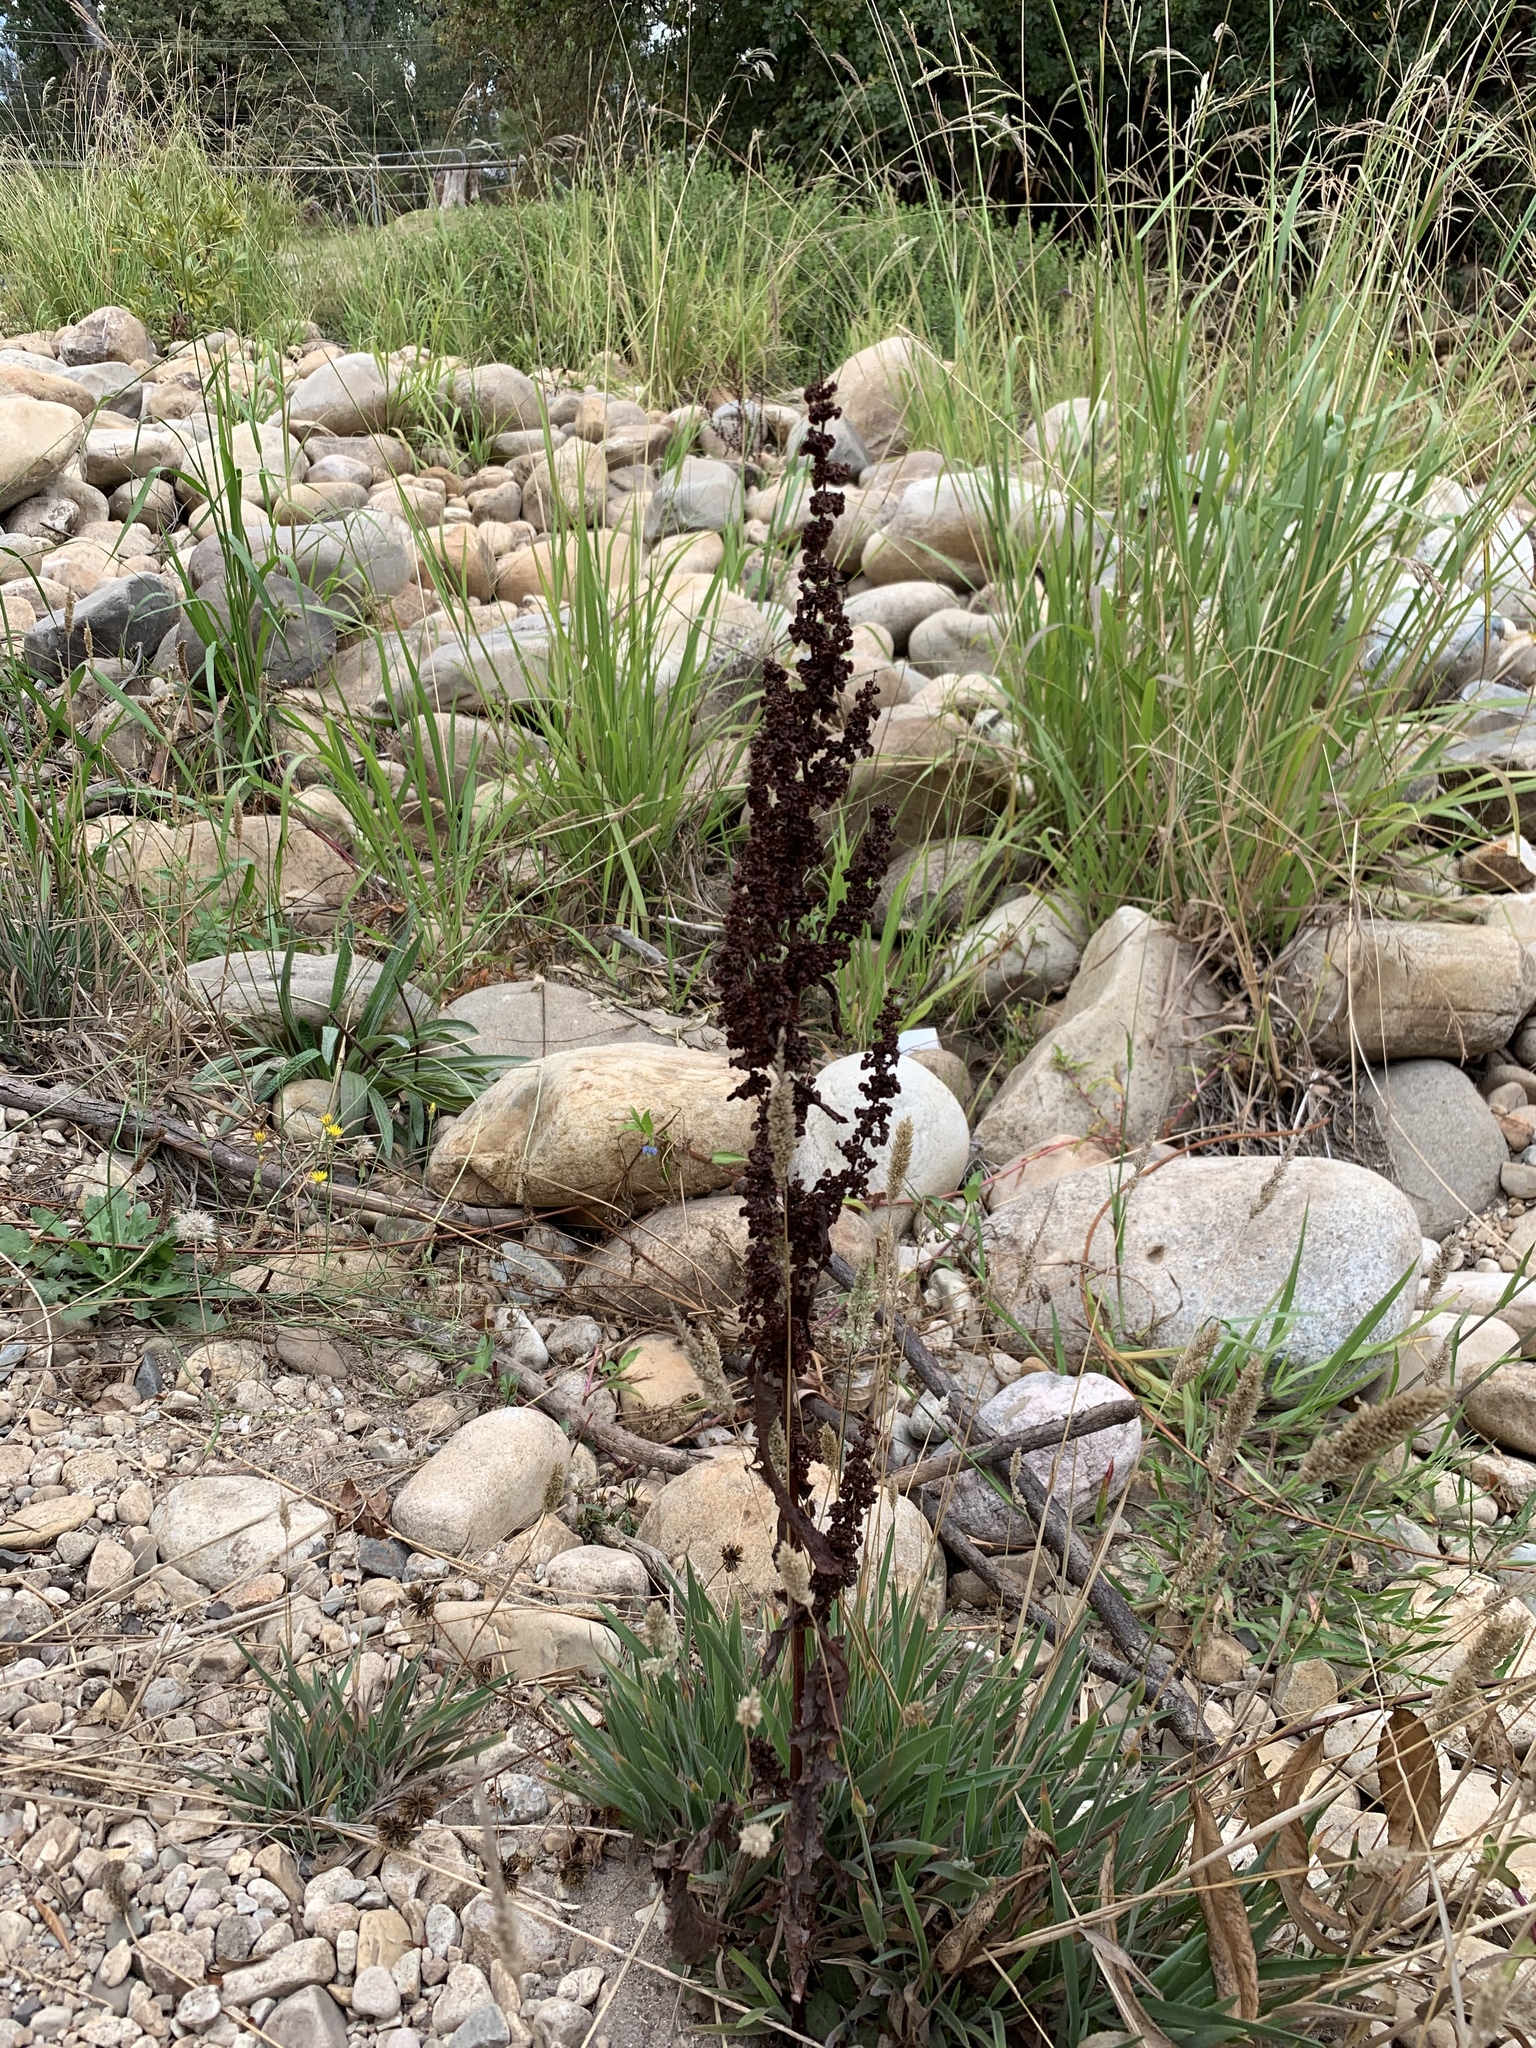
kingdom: Plantae
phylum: Tracheophyta
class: Magnoliopsida
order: Caryophyllales
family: Polygonaceae
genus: Rumex
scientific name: Rumex crispus
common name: Curled dock
